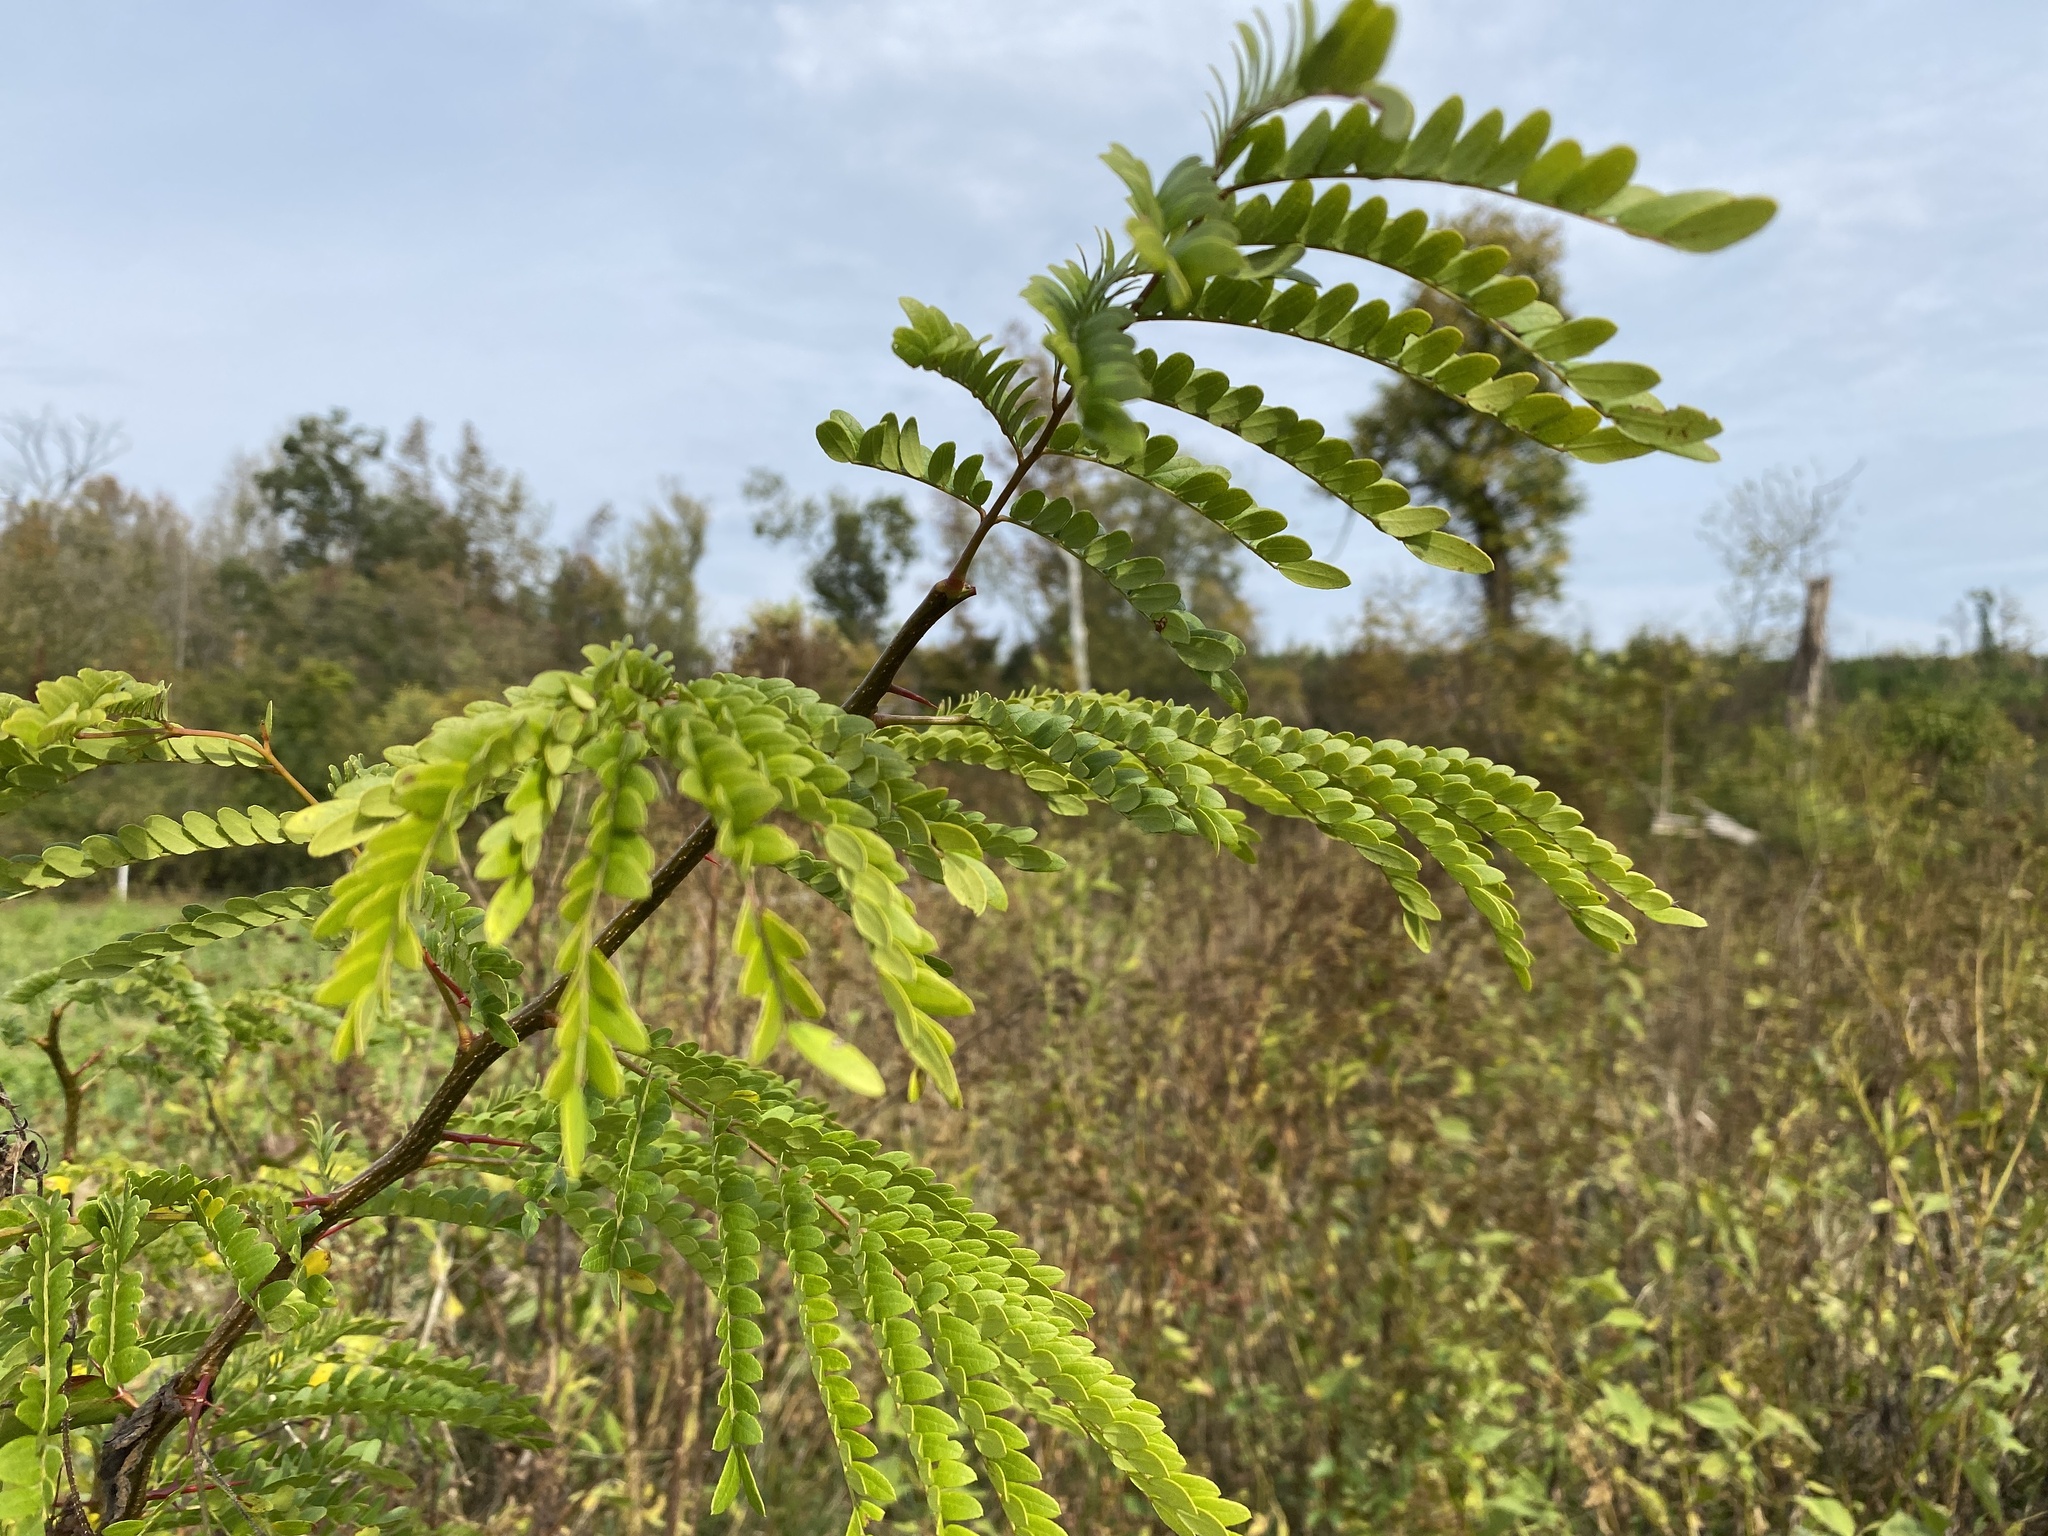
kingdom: Plantae
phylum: Tracheophyta
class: Magnoliopsida
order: Fabales
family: Fabaceae
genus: Gleditsia
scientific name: Gleditsia triacanthos
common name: Common honeylocust
